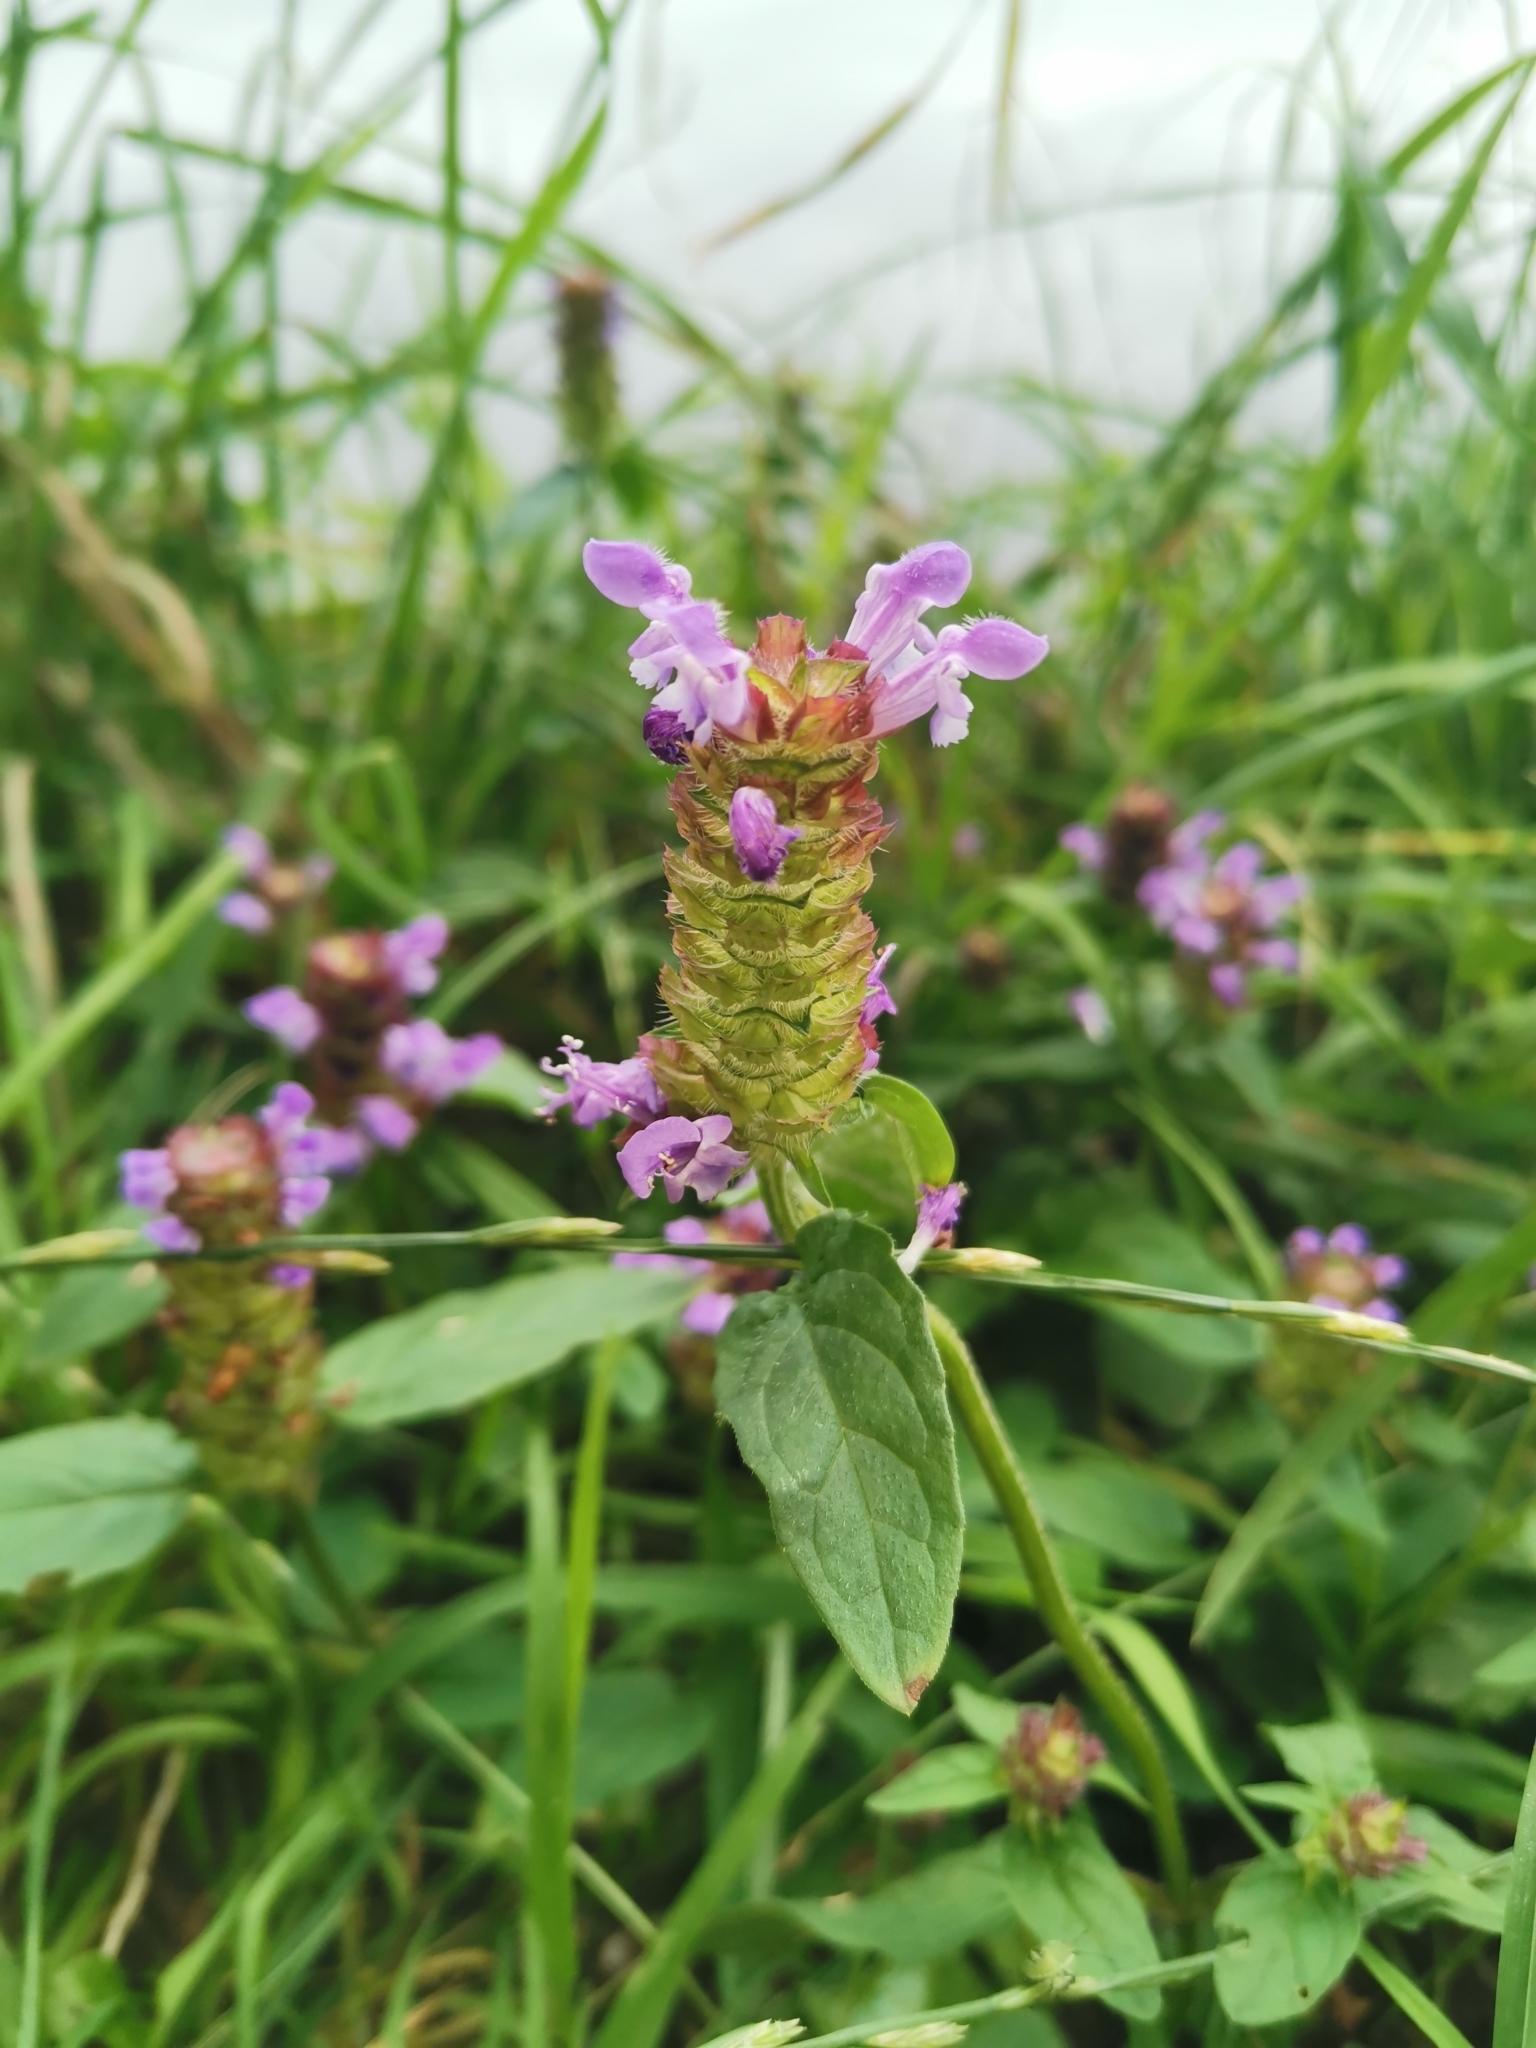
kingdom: Plantae
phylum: Tracheophyta
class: Magnoliopsida
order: Lamiales
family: Lamiaceae
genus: Prunella
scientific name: Prunella vulgaris
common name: Heal-all
